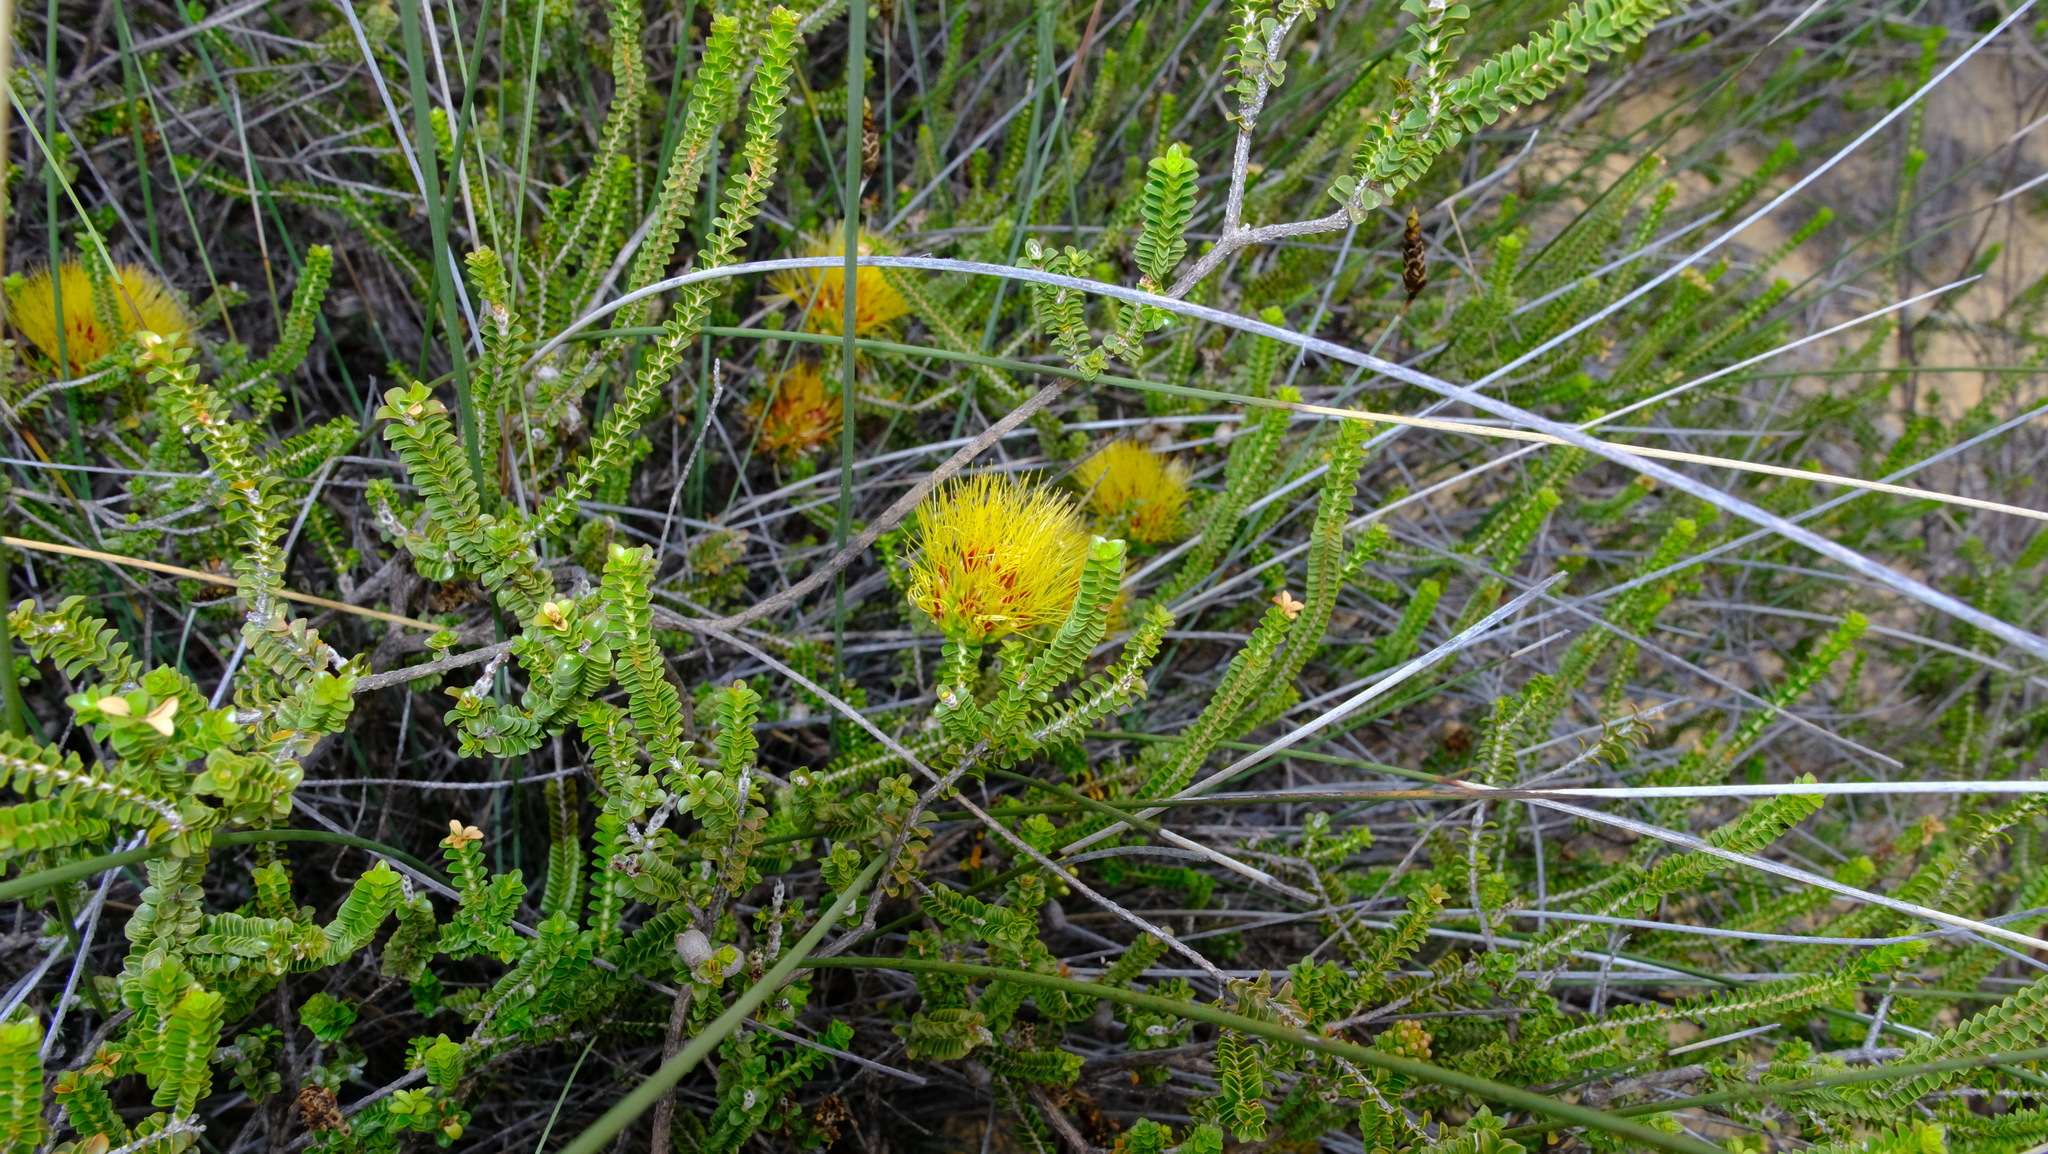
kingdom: Plantae
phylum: Tracheophyta
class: Magnoliopsida
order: Myrtales
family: Myrtaceae
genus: Melaleuca
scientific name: Melaleuca aestiva
